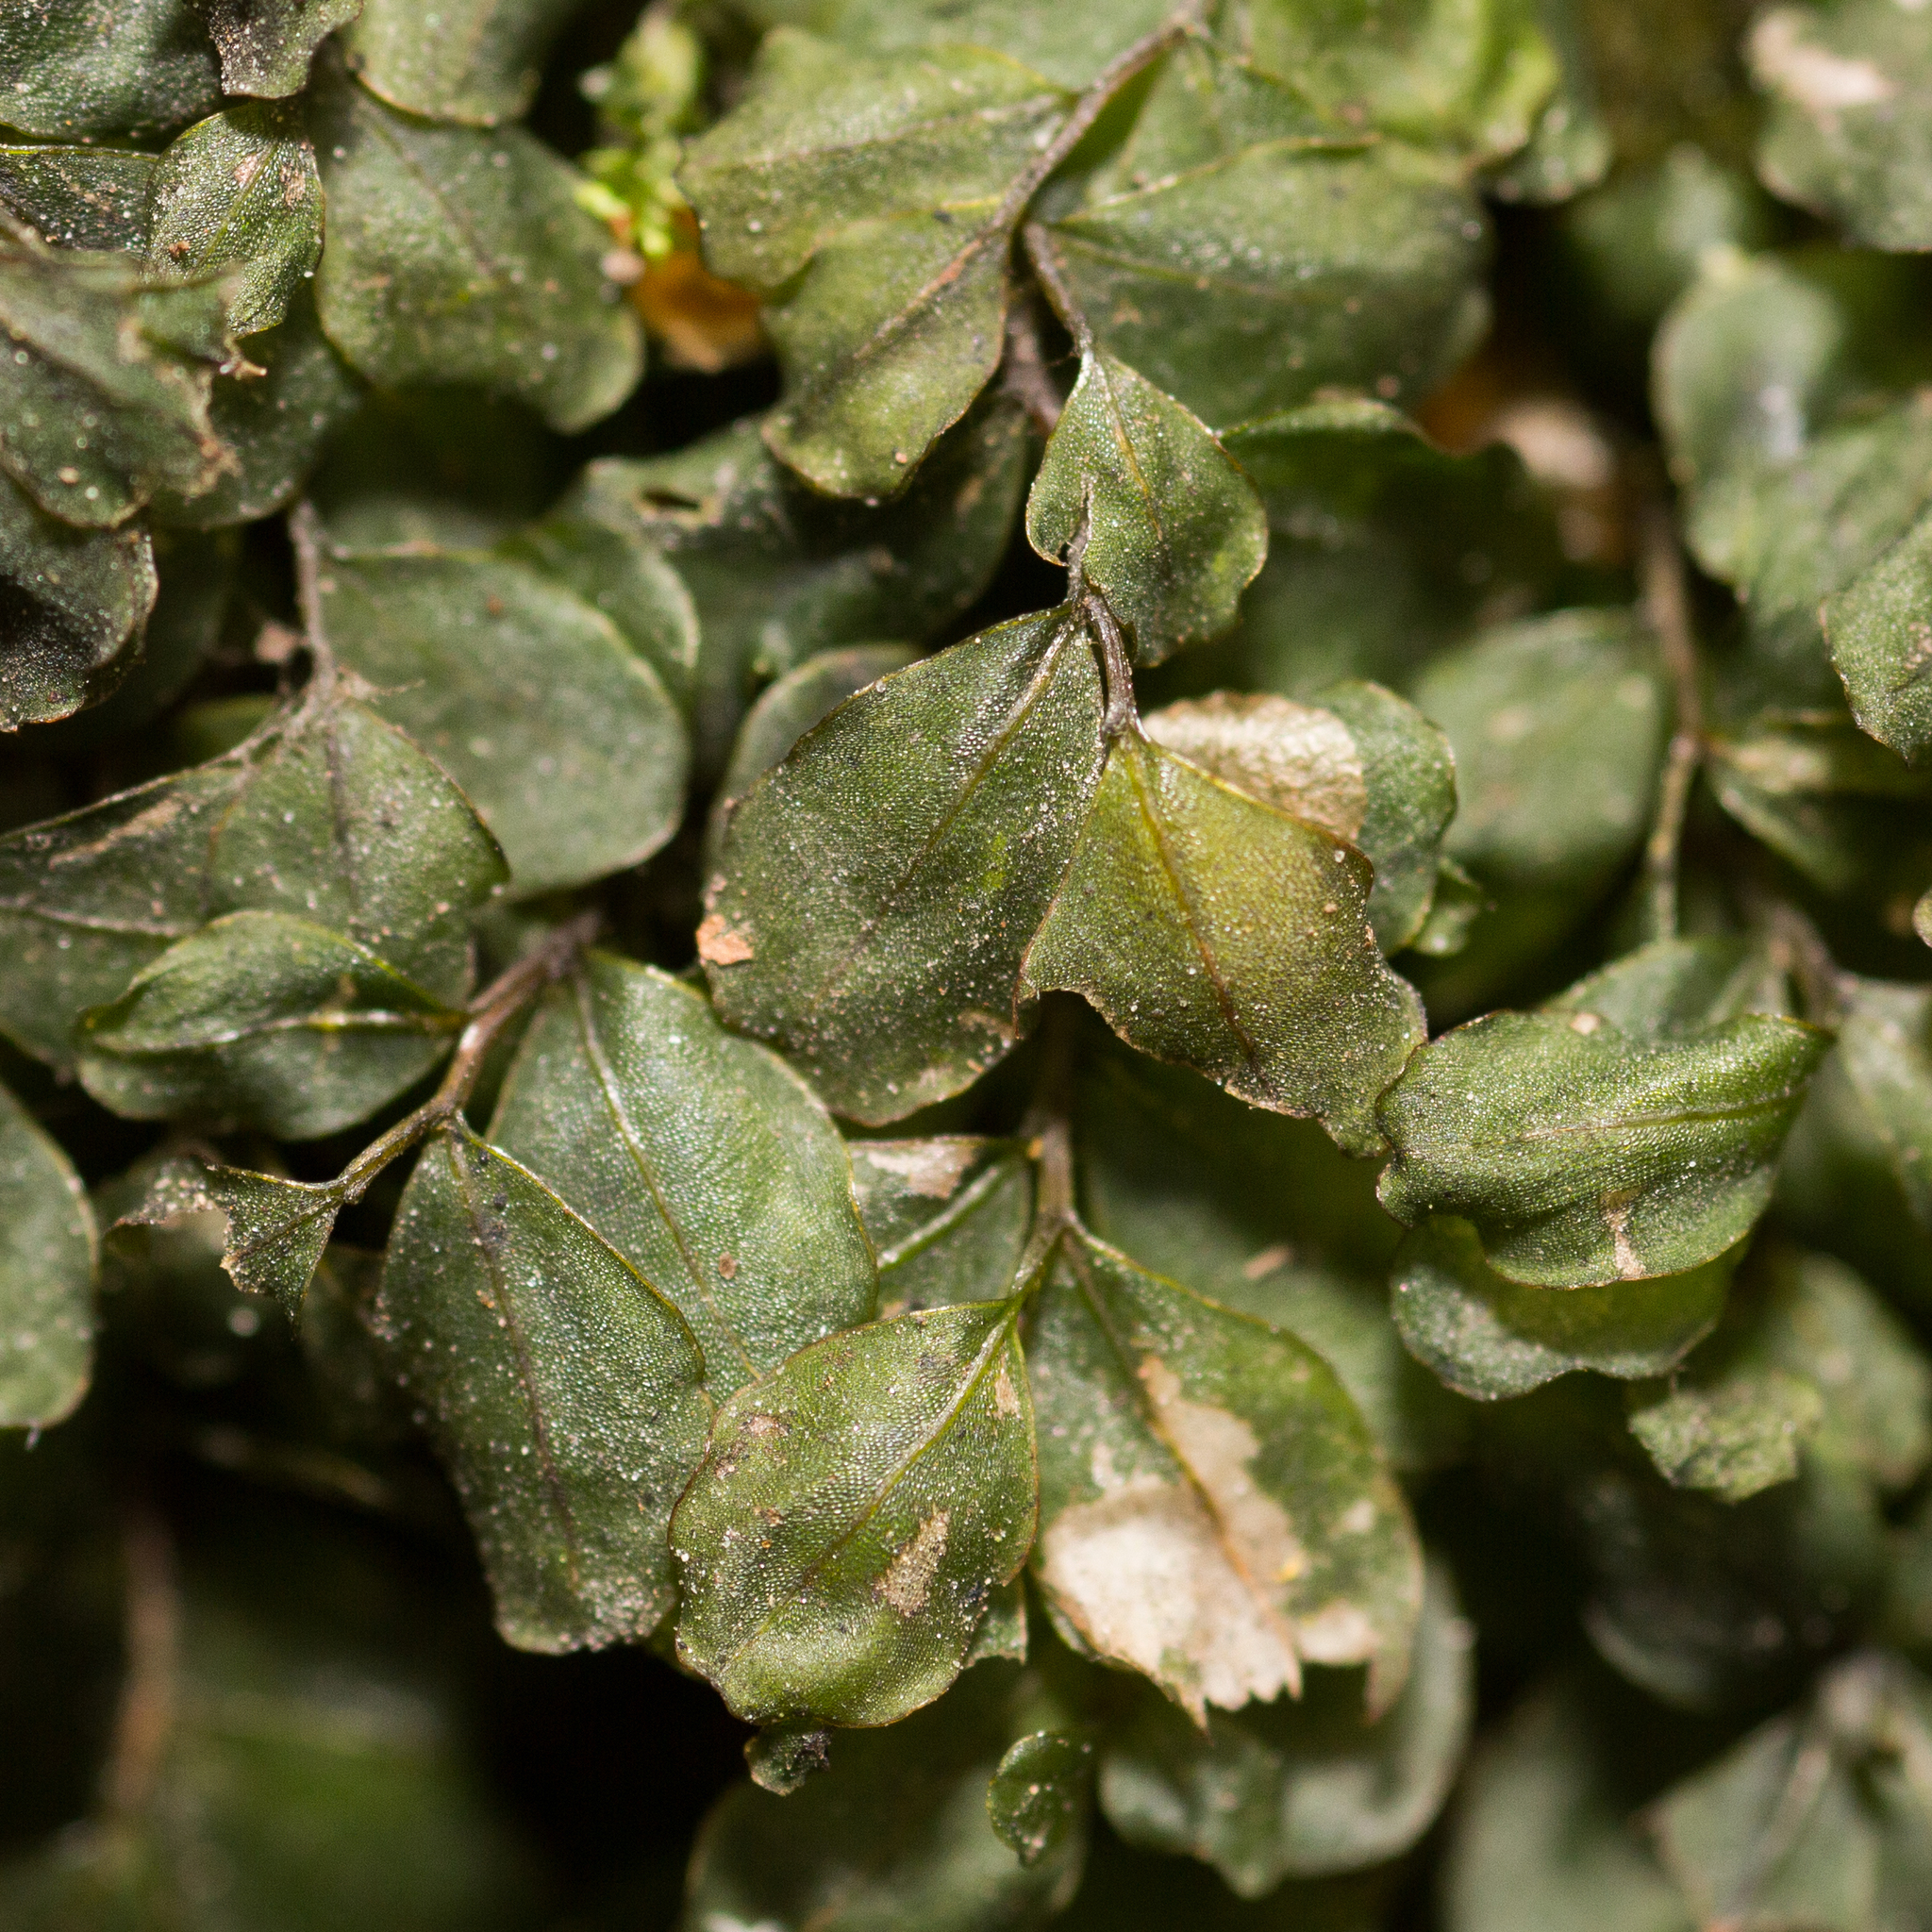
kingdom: Plantae
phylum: Bryophyta
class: Bryopsida
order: Bryales
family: Mniaceae
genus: Rhizomnium
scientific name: Rhizomnium punctatum
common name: Dotted leafy moss
